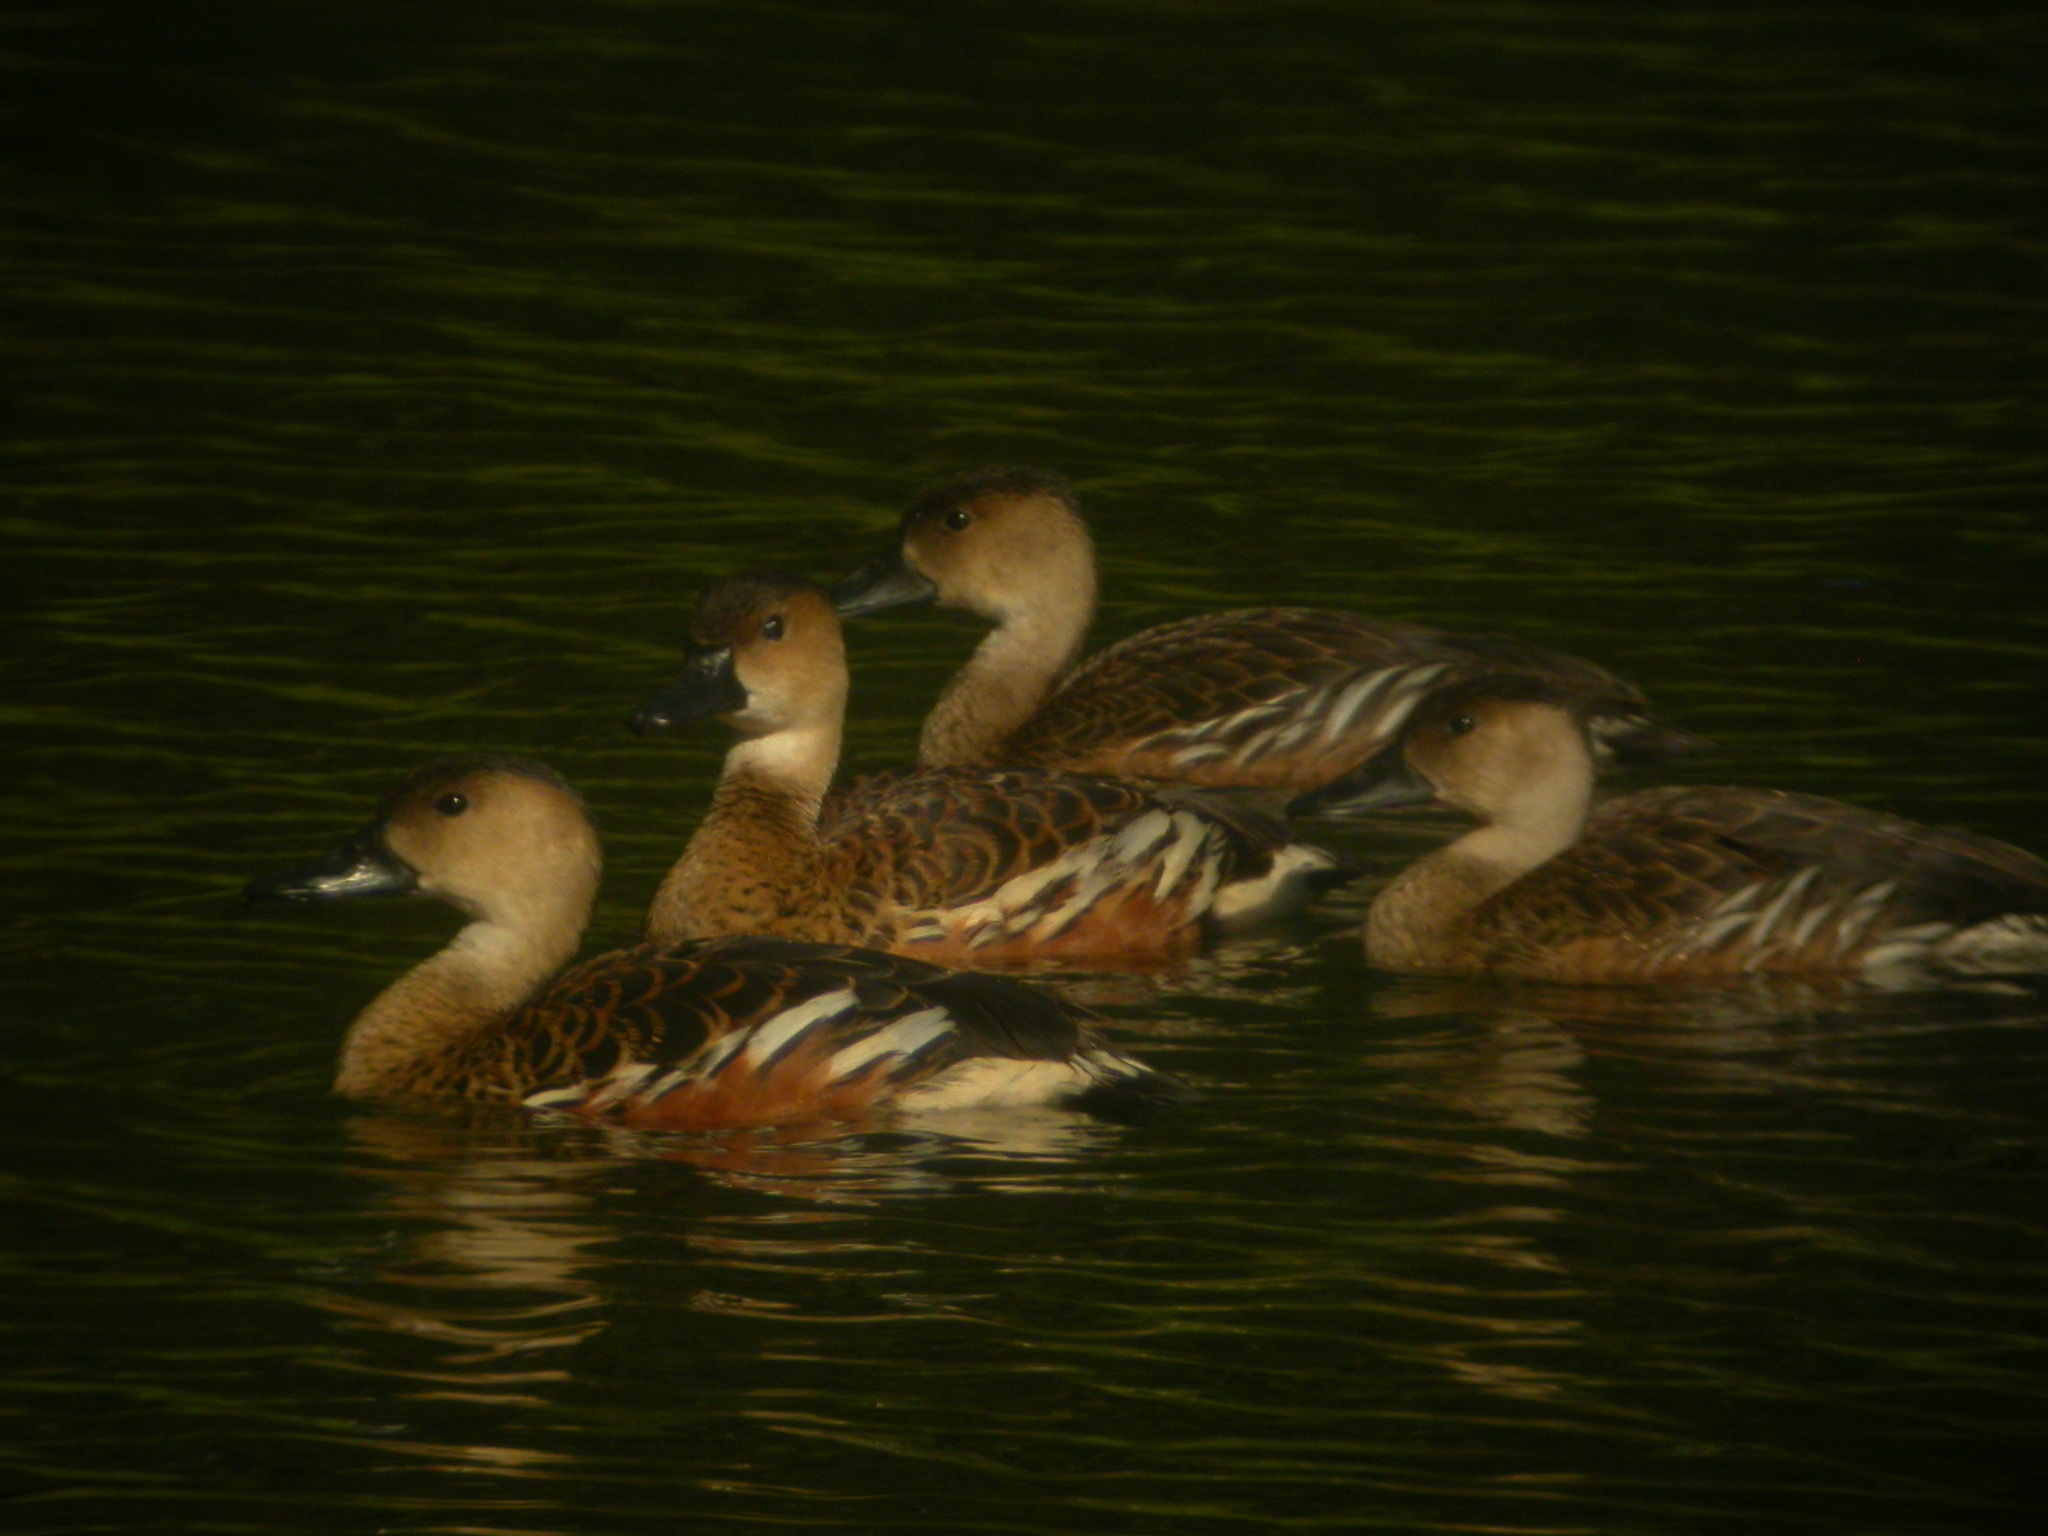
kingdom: Animalia
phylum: Chordata
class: Aves
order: Anseriformes
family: Anatidae
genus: Dendrocygna
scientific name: Dendrocygna arcuata
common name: Wandering whistling-duck
